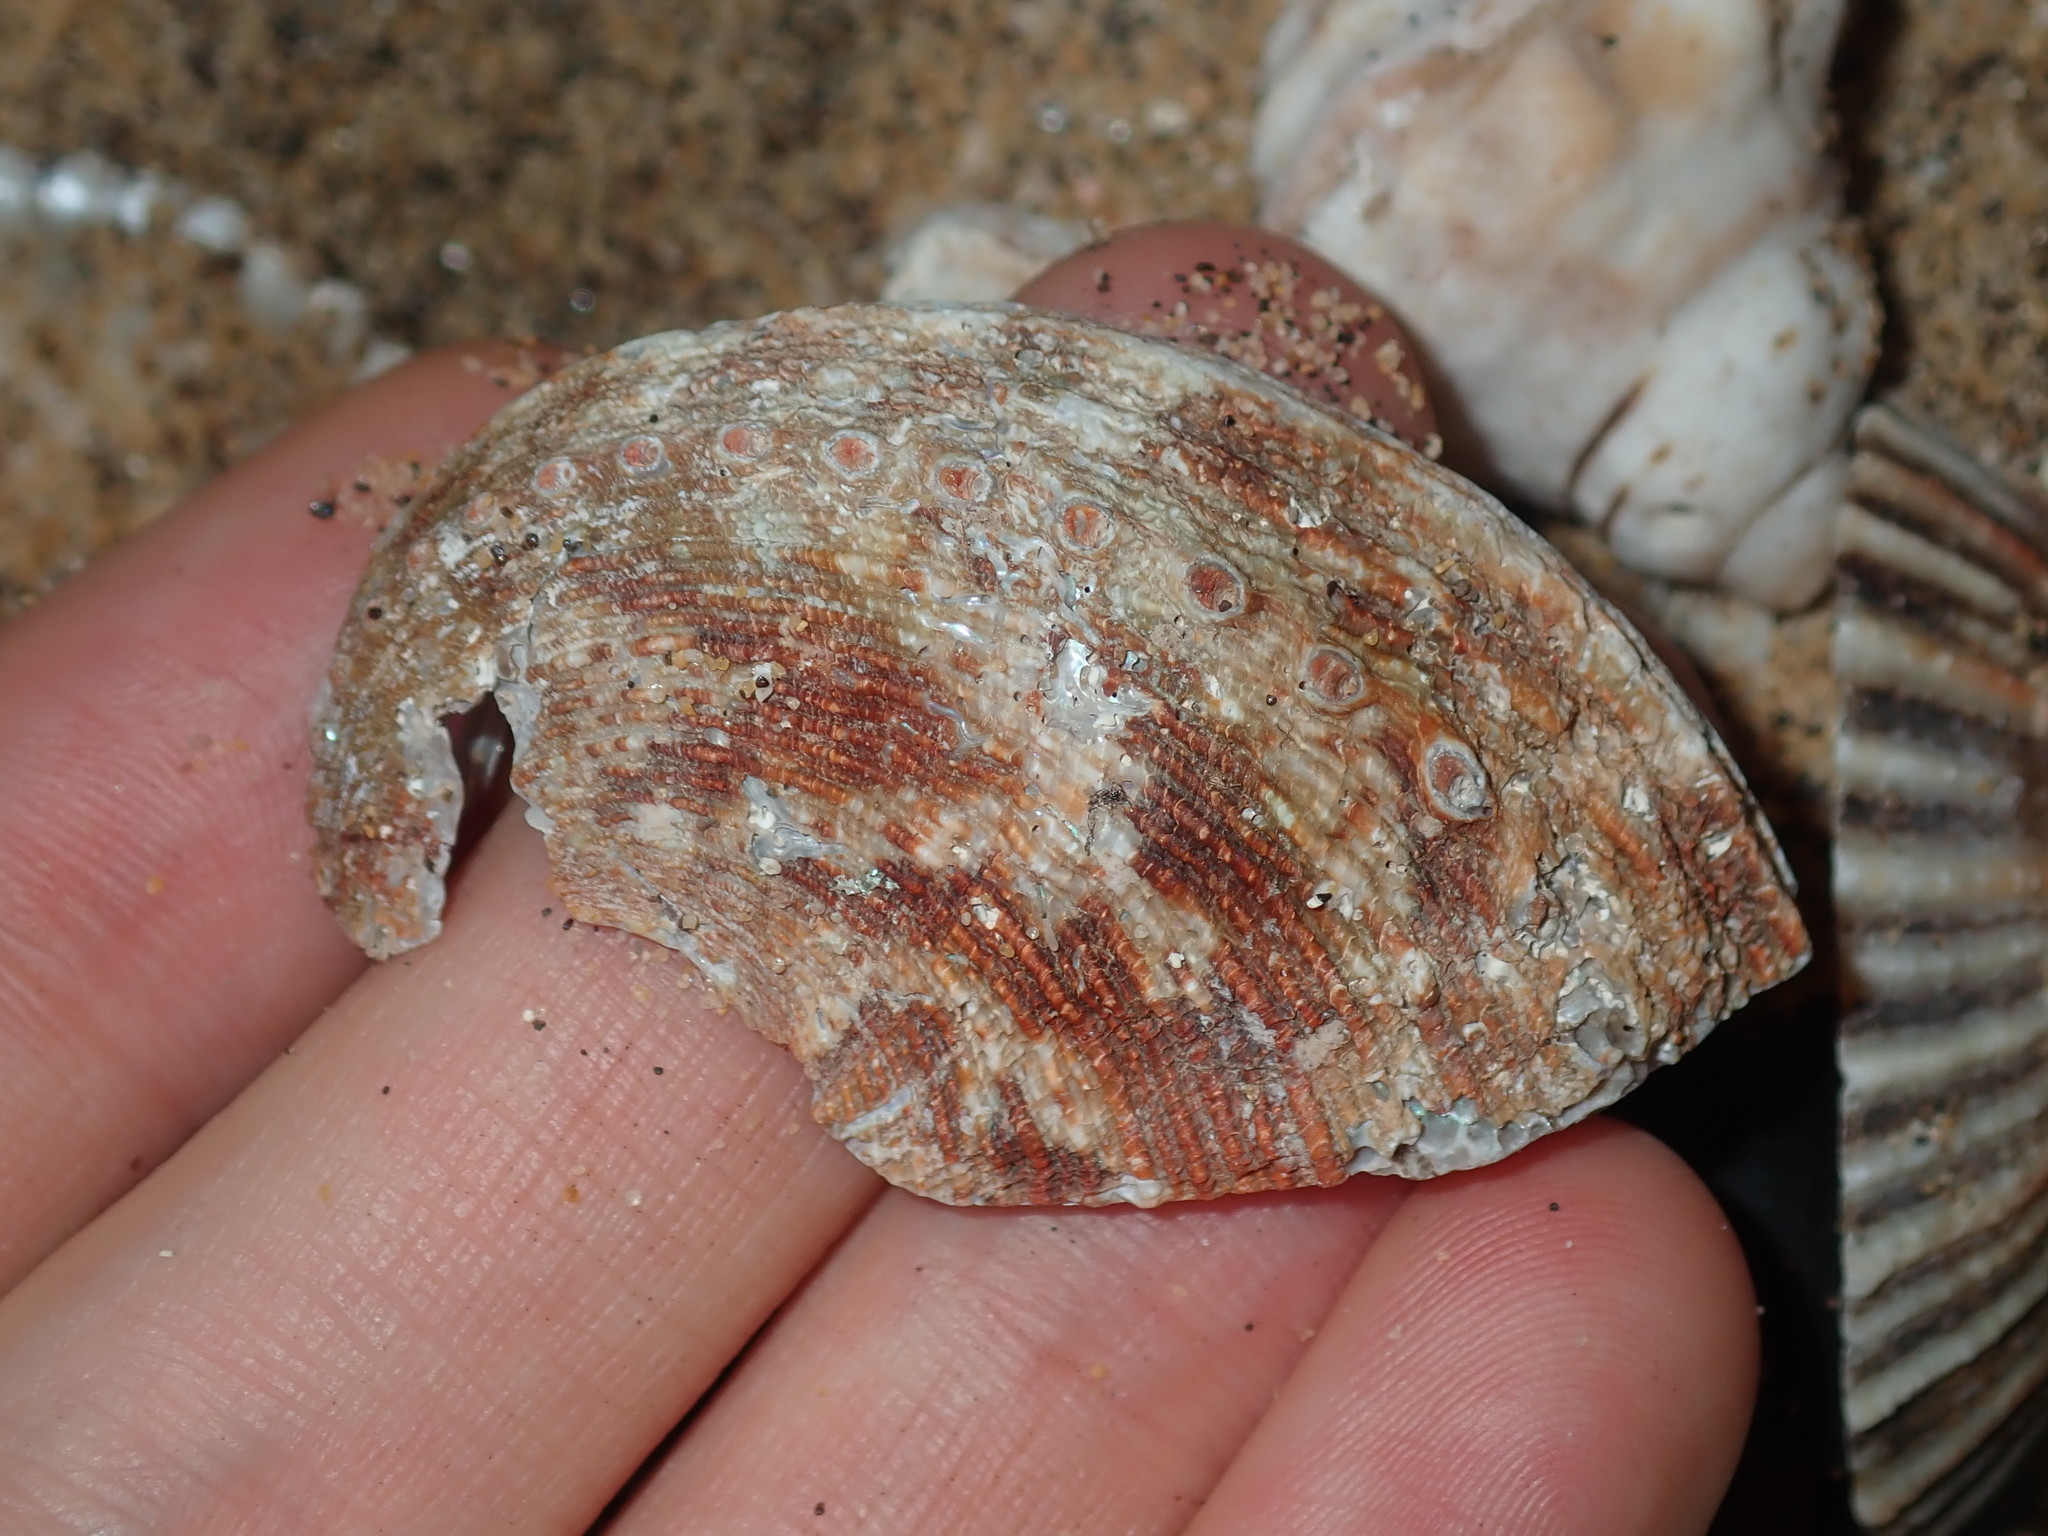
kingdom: Animalia
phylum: Mollusca
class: Gastropoda
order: Lepetellida
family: Haliotidae
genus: Haliotis
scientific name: Haliotis rubra
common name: Blacklip abalone
